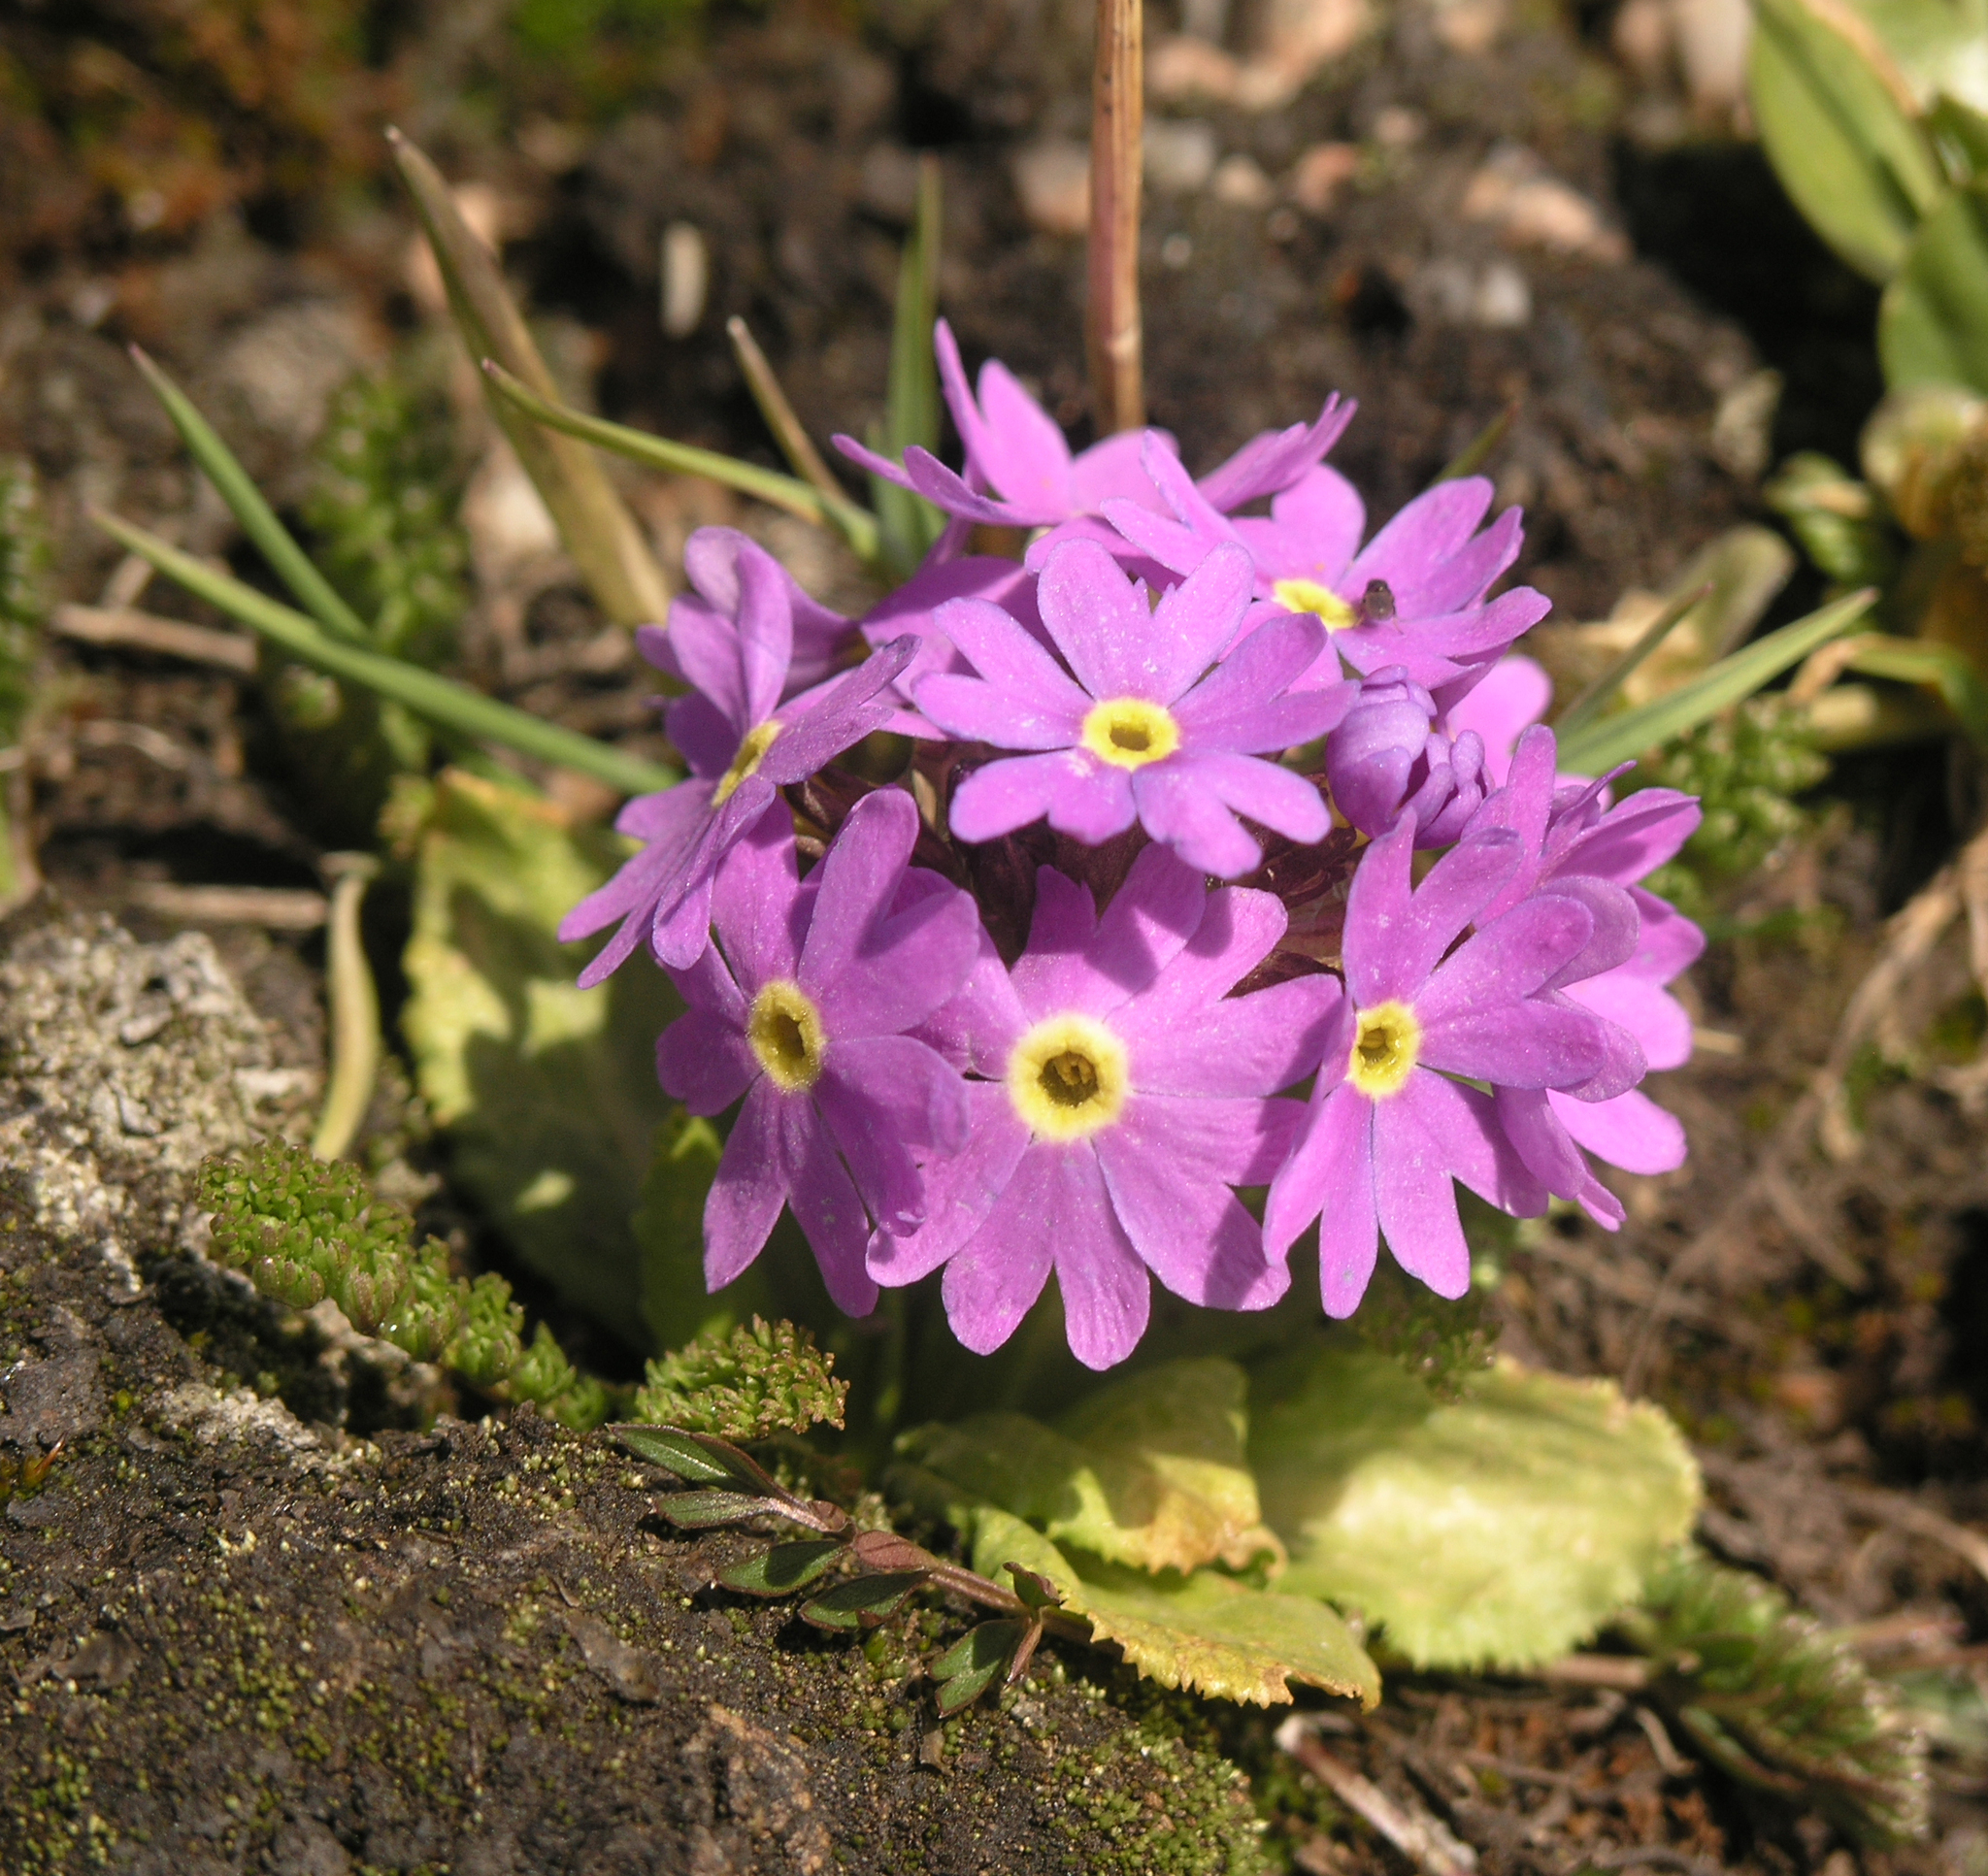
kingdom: Plantae
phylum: Tracheophyta
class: Magnoliopsida
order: Ericales
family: Primulaceae
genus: Primula
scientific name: Primula algida
